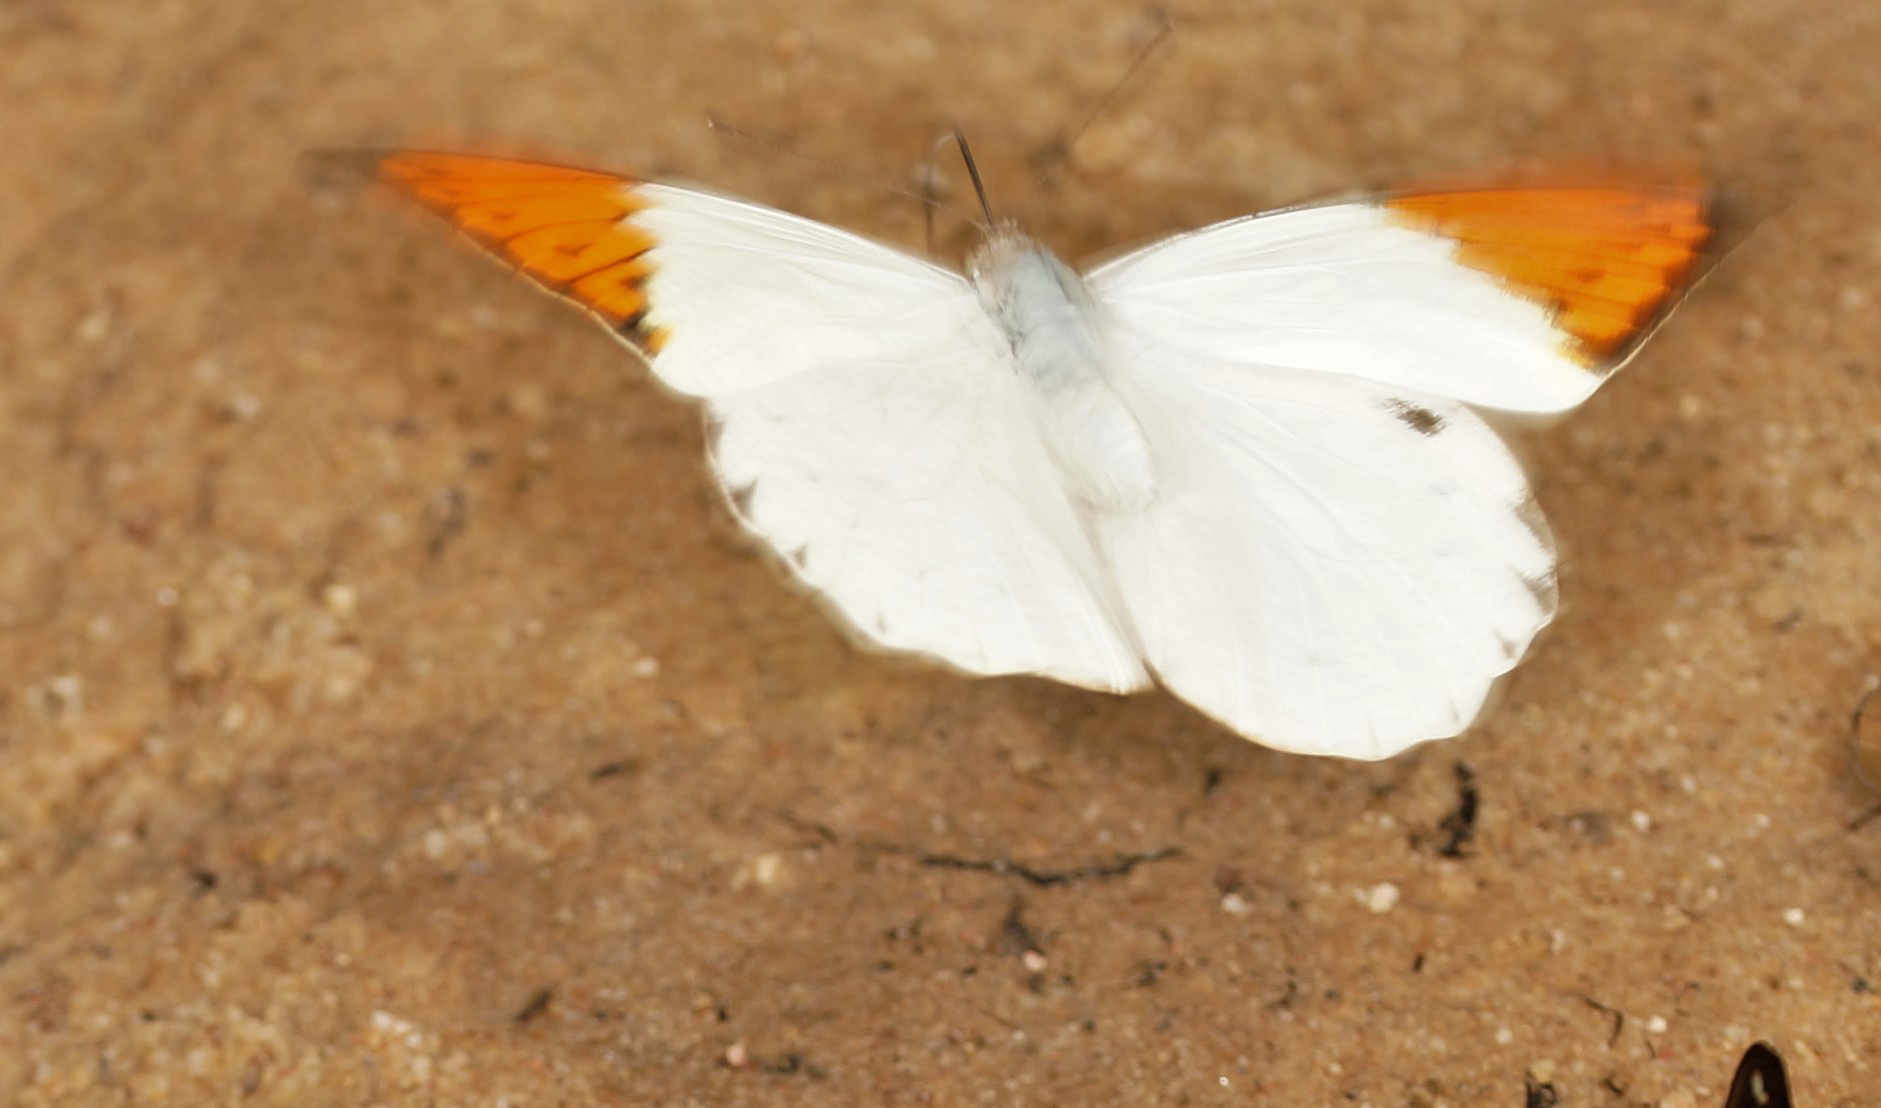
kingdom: Animalia
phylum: Arthropoda
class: Insecta
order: Lepidoptera
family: Pieridae
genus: Hebomoia
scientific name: Hebomoia glaucippe
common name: Great orange tip
